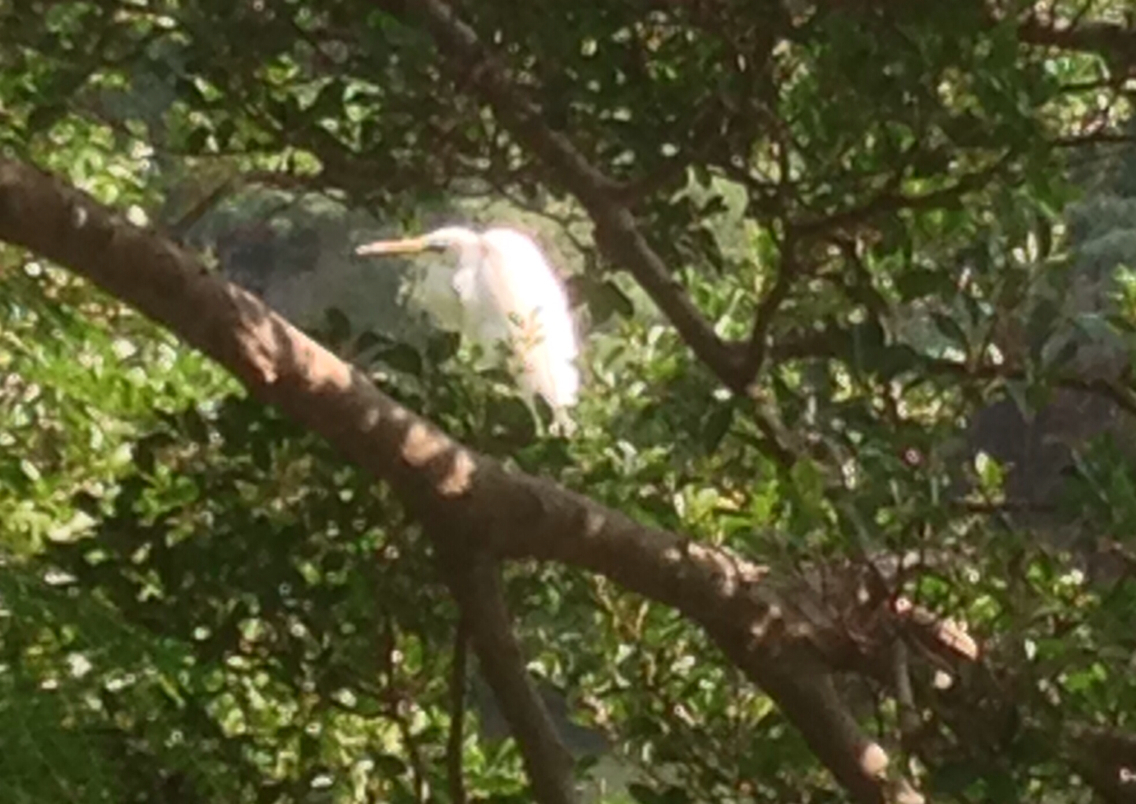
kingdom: Animalia
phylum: Chordata
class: Aves
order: Pelecaniformes
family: Ardeidae
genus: Ardea
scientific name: Ardea alba
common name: Great egret
